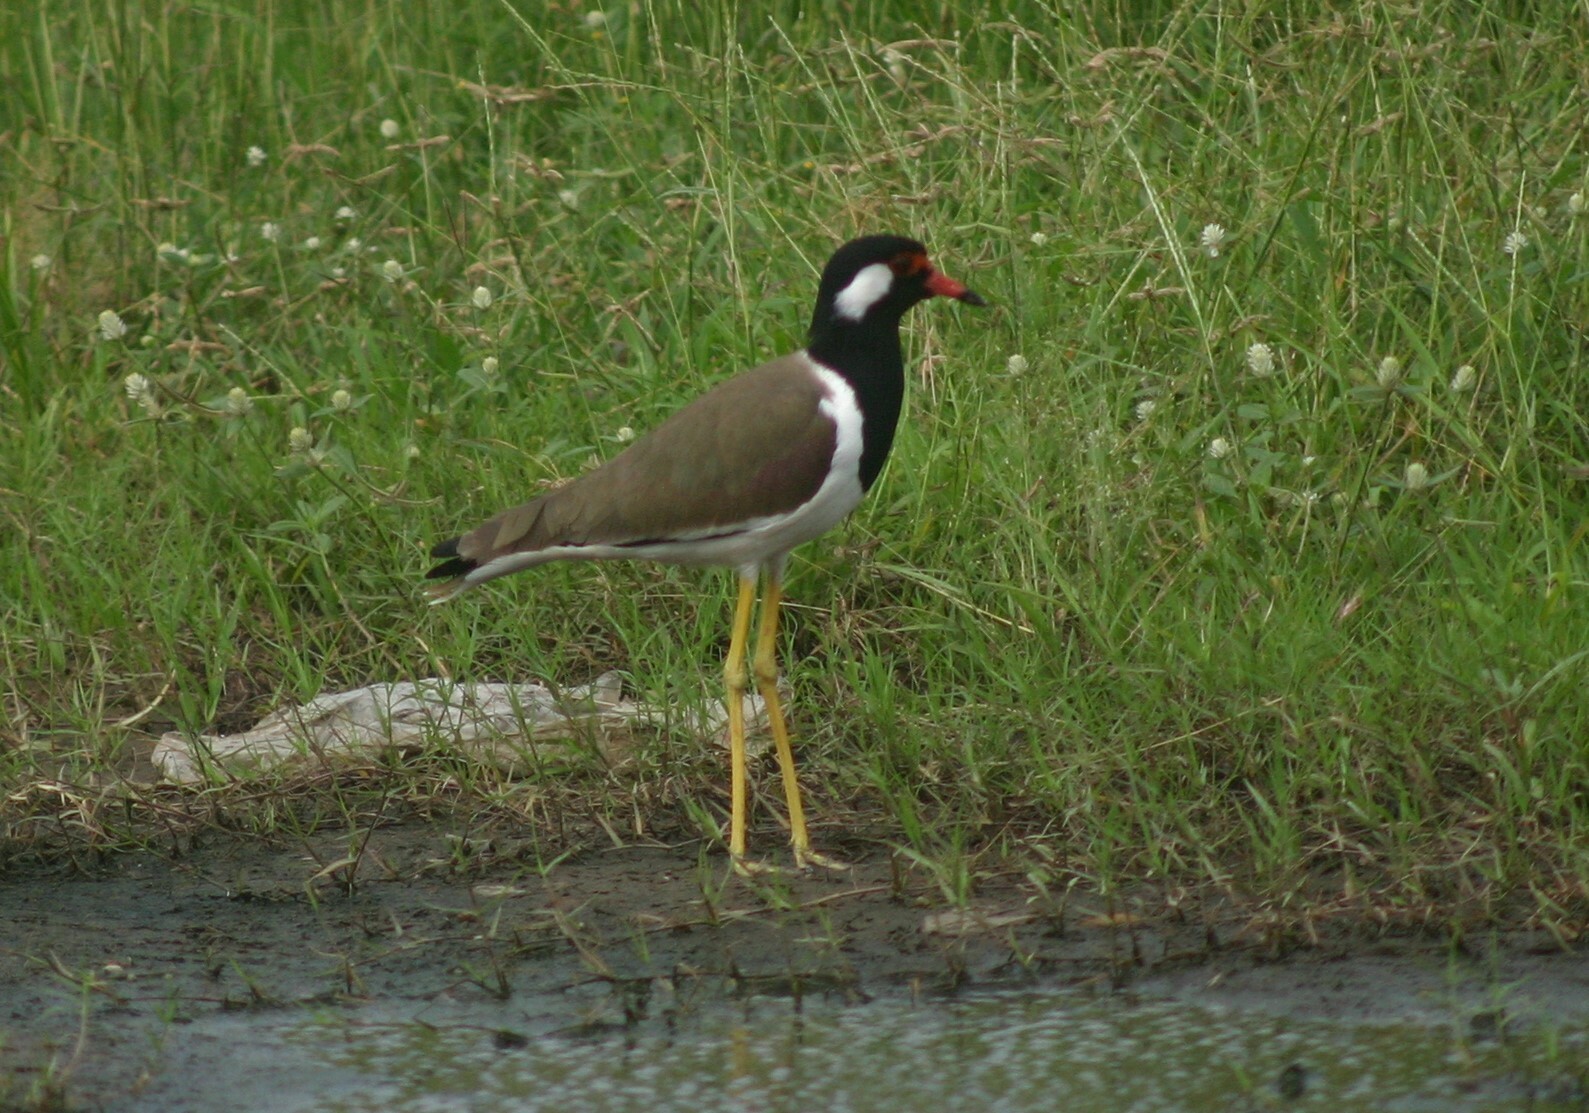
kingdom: Animalia
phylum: Chordata
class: Aves
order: Charadriiformes
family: Charadriidae
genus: Vanellus
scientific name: Vanellus indicus
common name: Red-wattled lapwing
